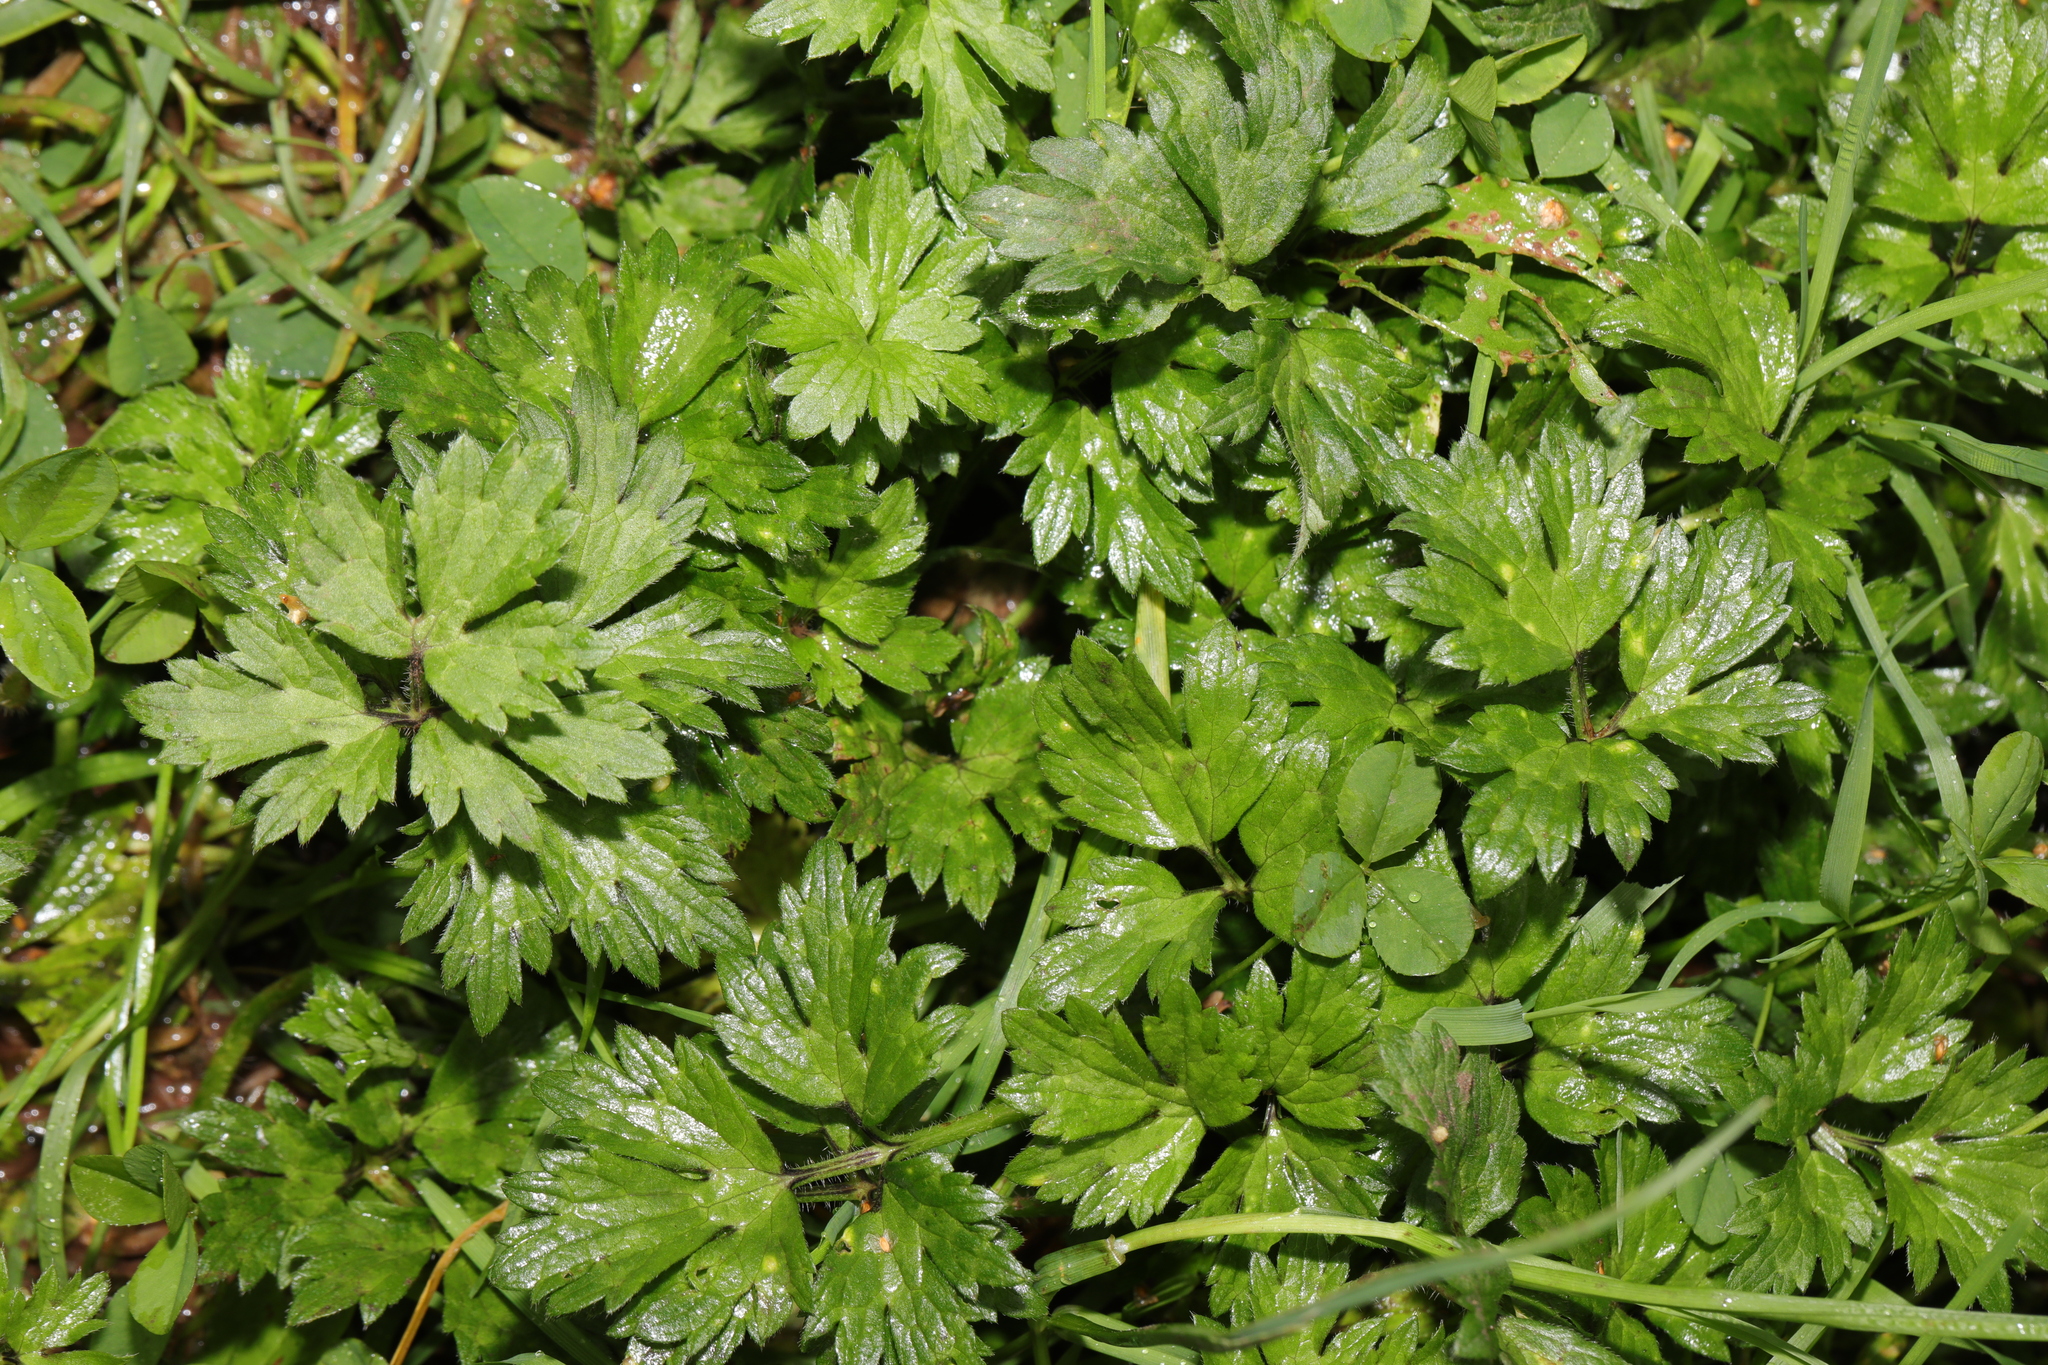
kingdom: Plantae
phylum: Tracheophyta
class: Magnoliopsida
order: Ranunculales
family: Ranunculaceae
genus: Ranunculus
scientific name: Ranunculus repens
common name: Creeping buttercup
